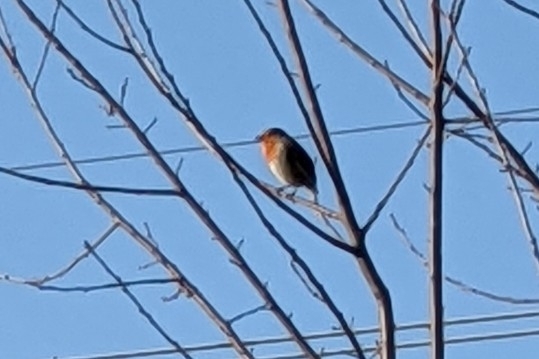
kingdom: Animalia
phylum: Chordata
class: Aves
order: Passeriformes
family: Muscicapidae
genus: Erithacus
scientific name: Erithacus rubecula
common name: European robin
